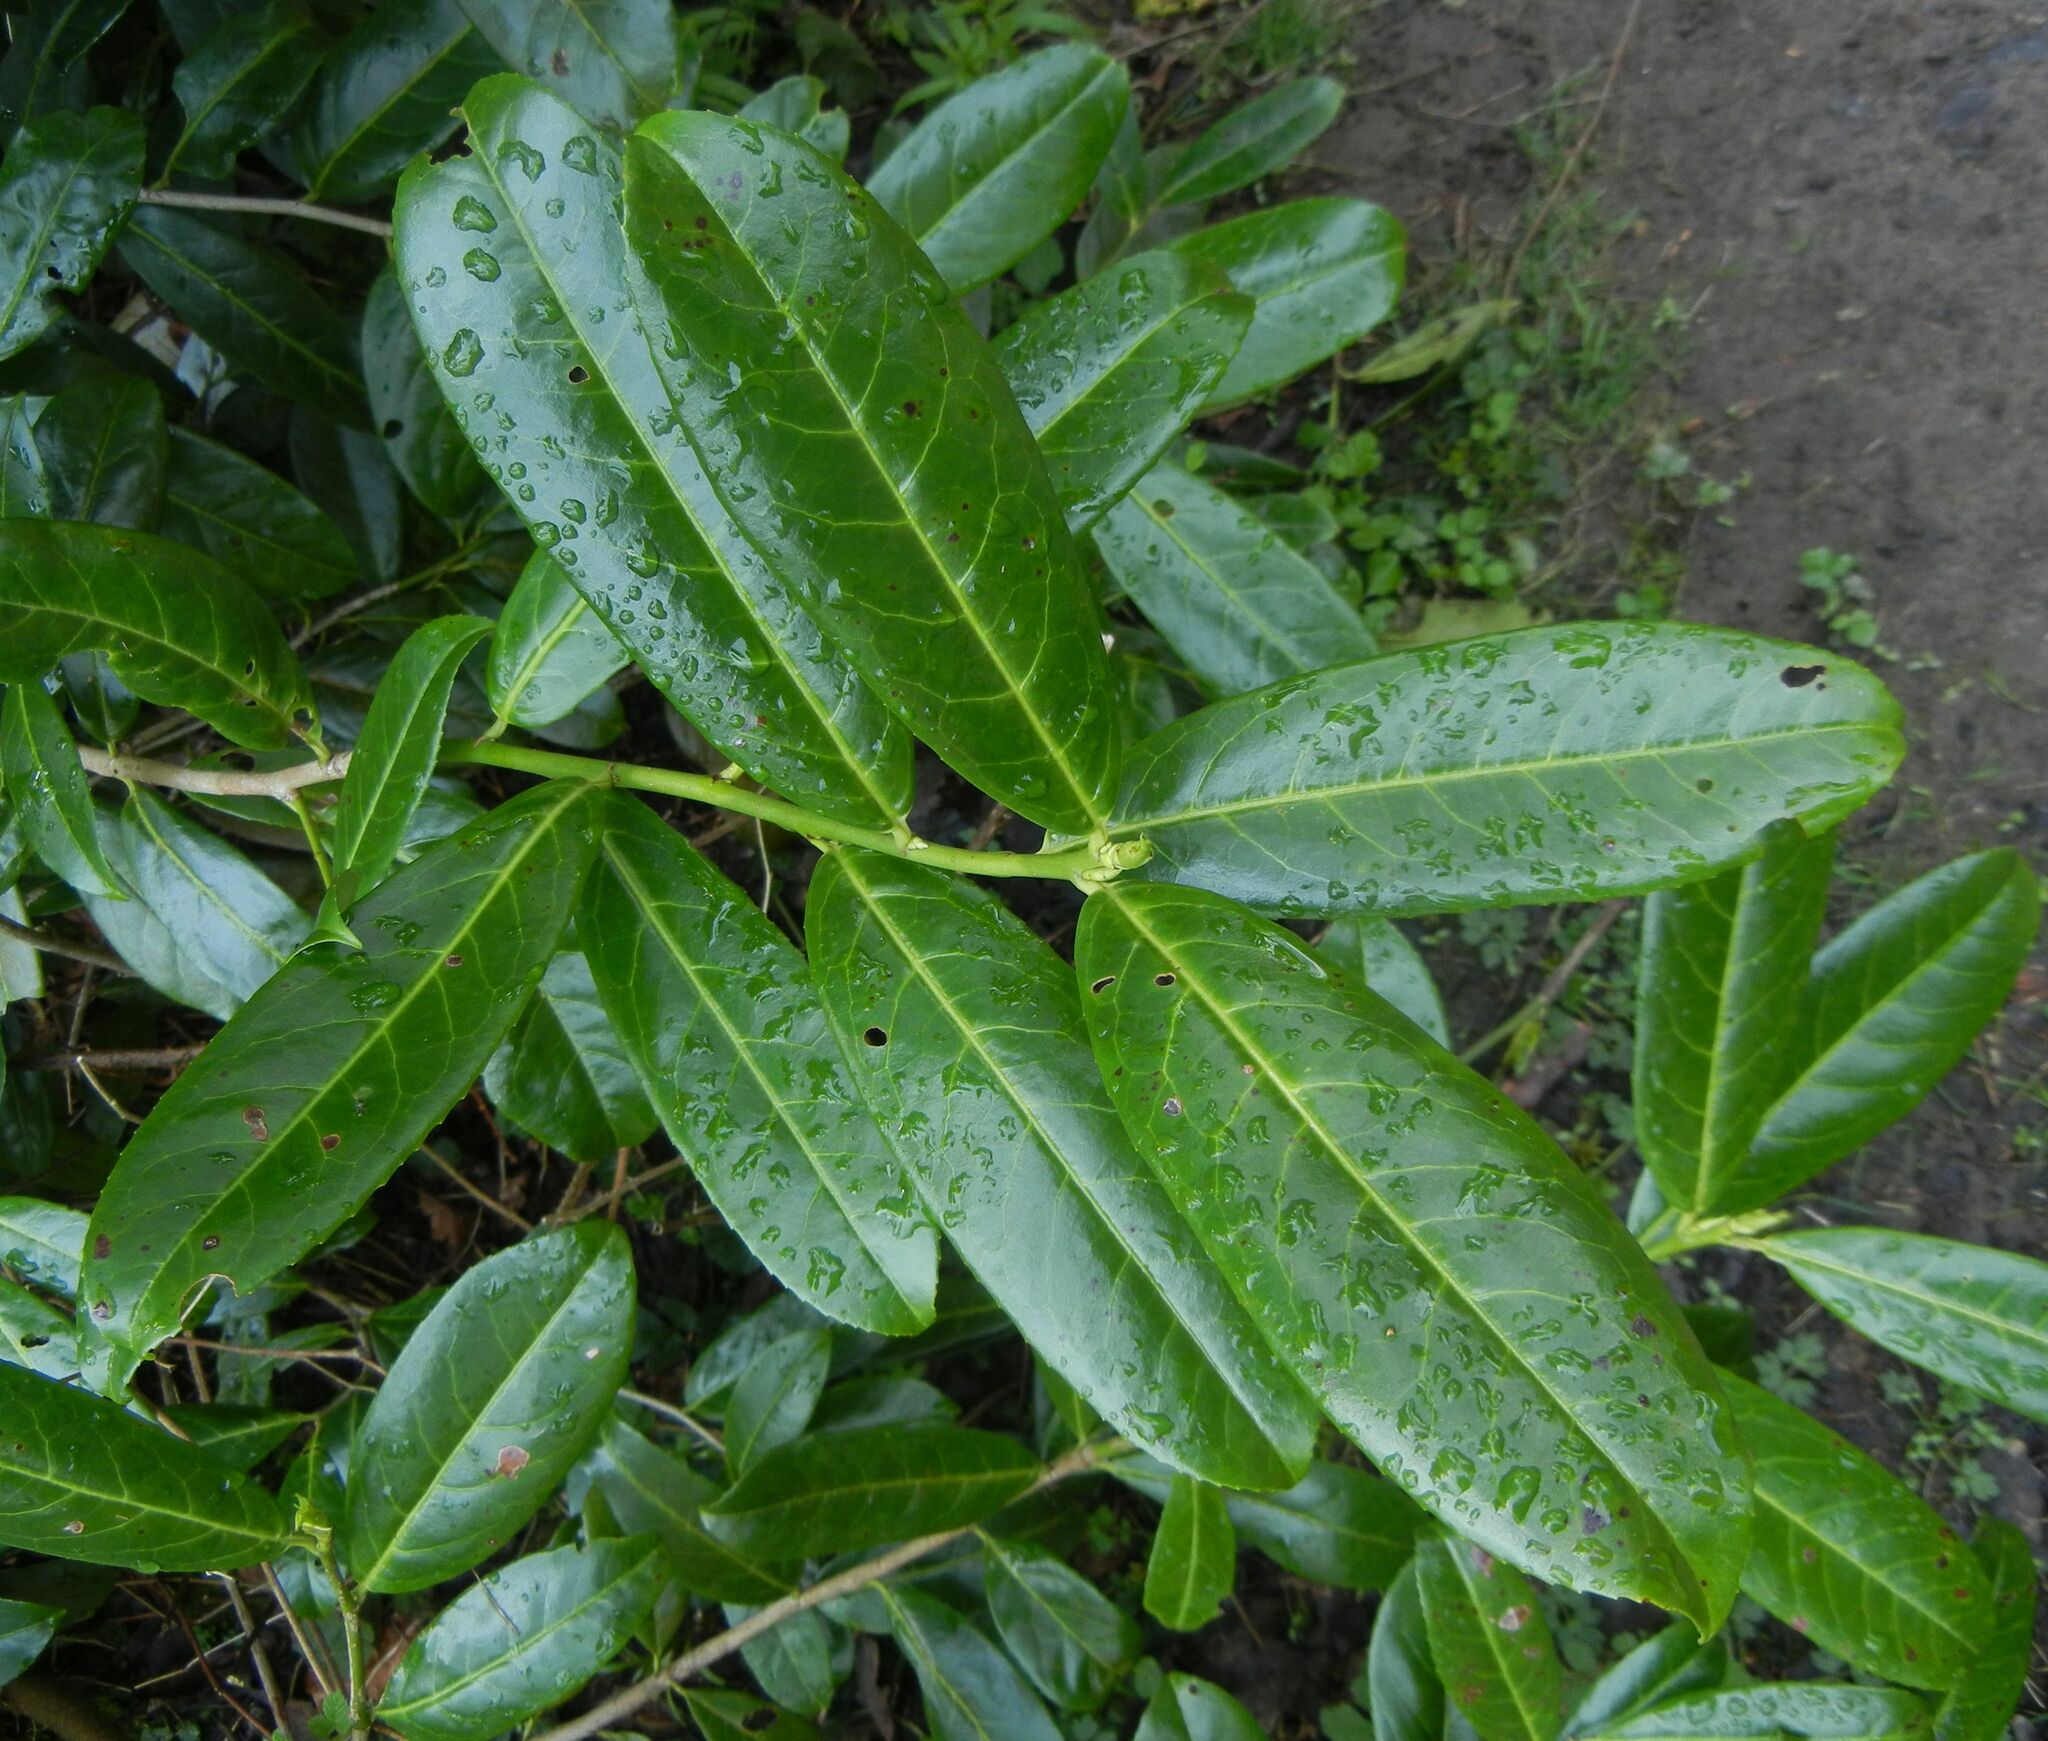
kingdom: Plantae
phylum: Tracheophyta
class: Magnoliopsida
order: Rosales
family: Rosaceae
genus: Prunus
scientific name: Prunus laurocerasus
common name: Cherry laurel
